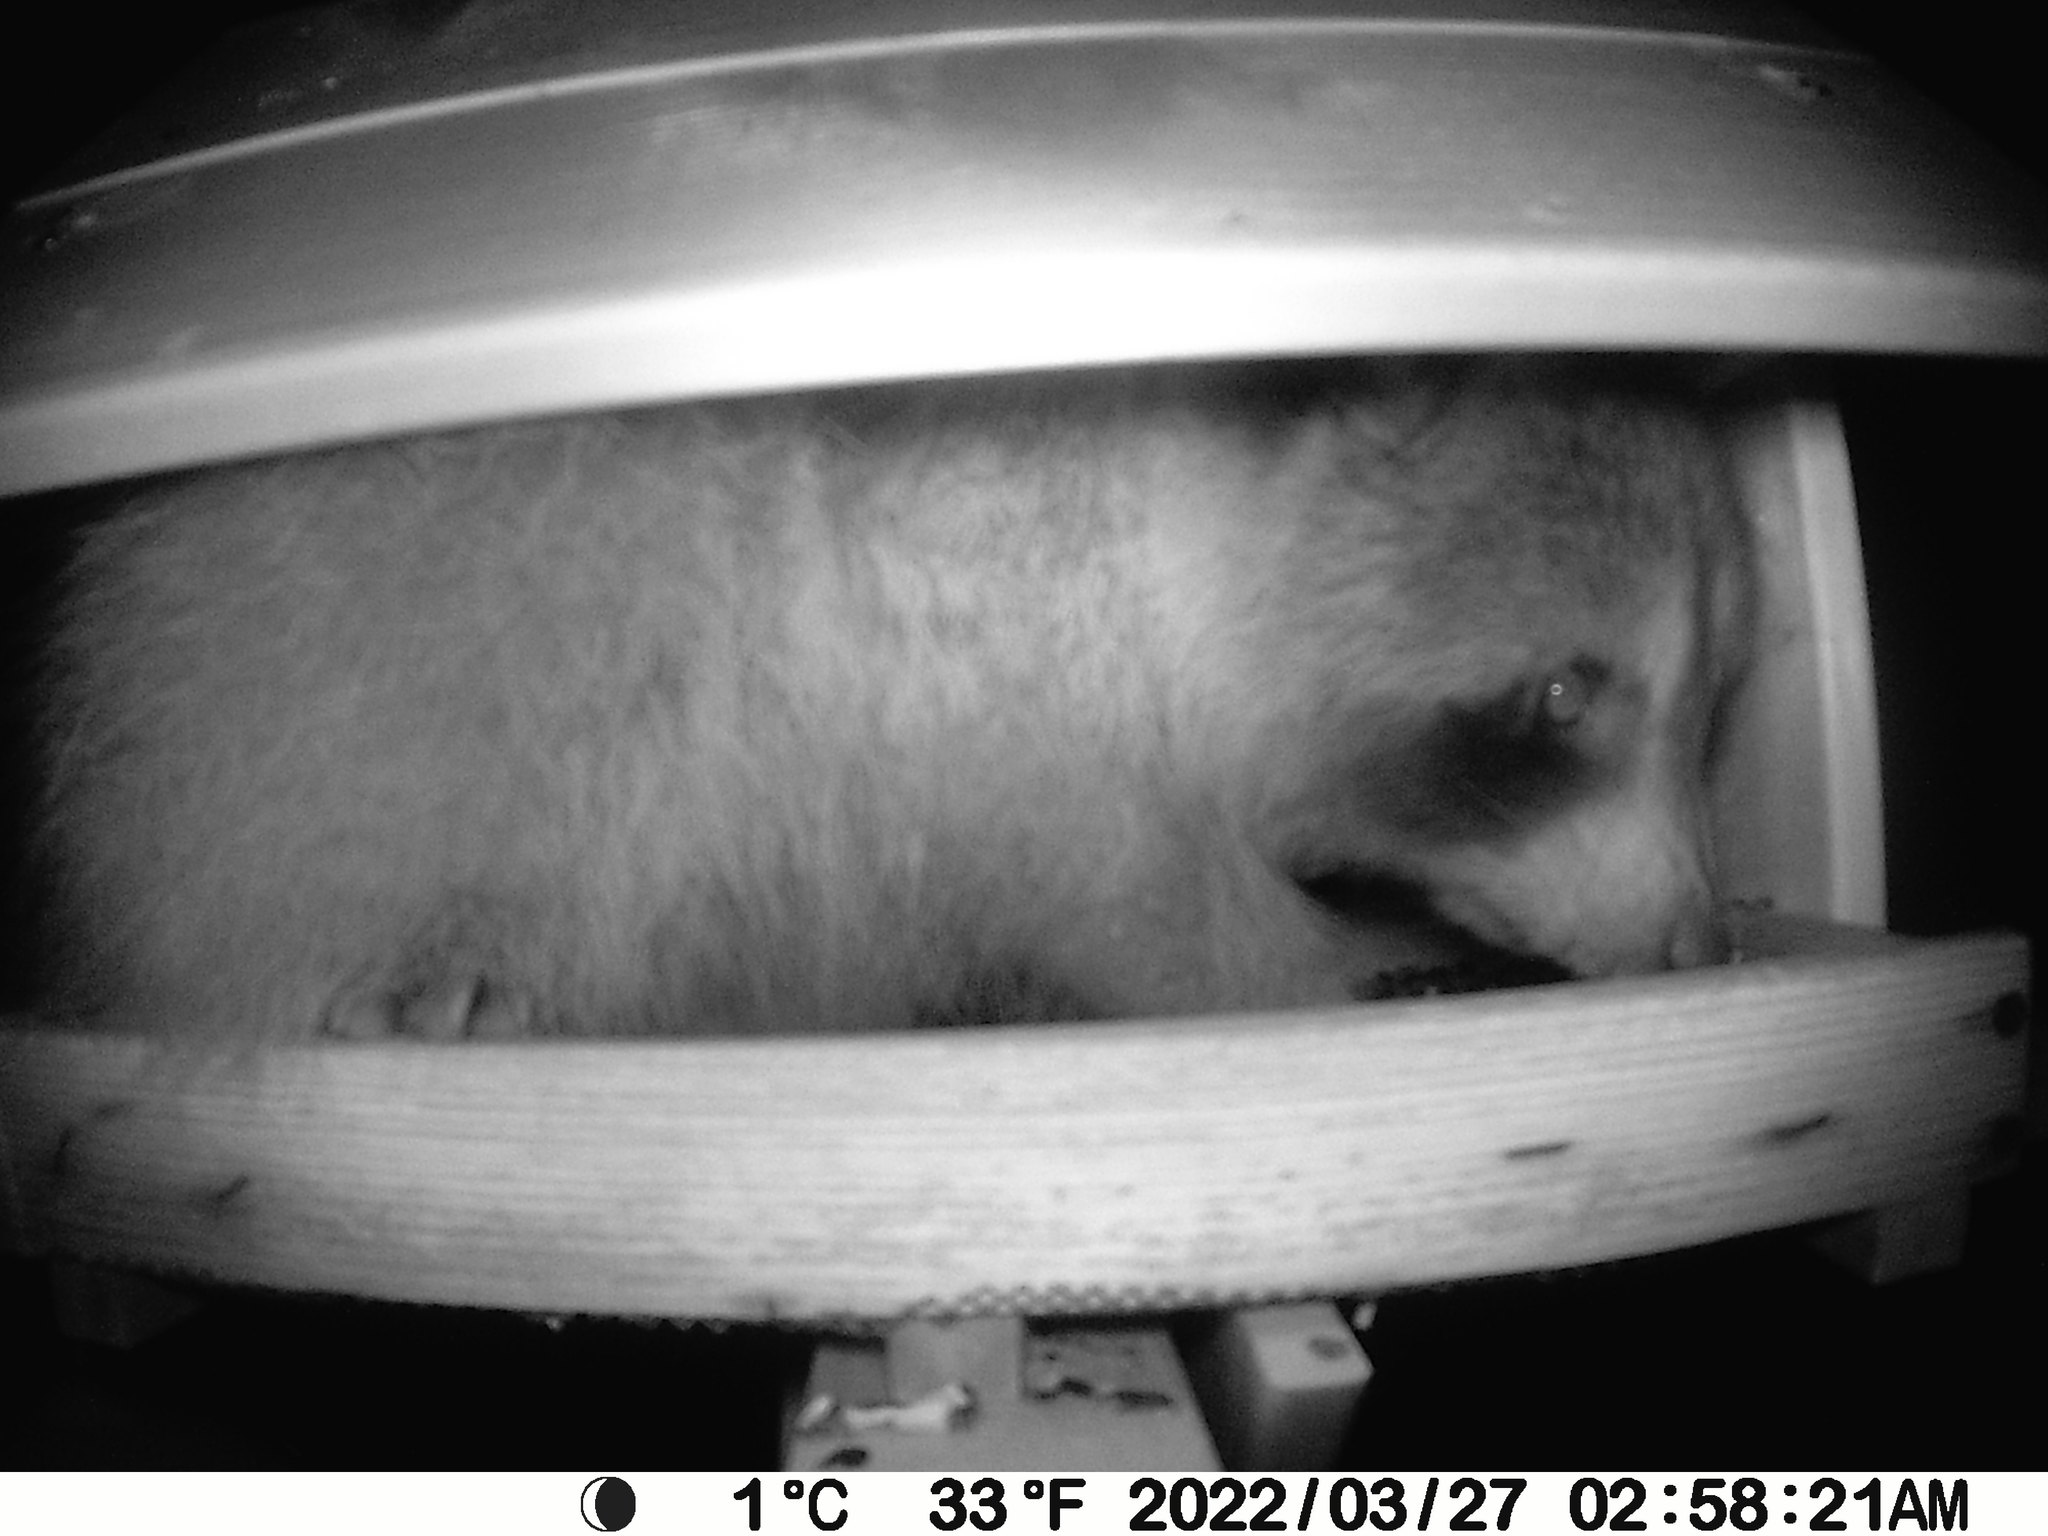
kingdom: Animalia
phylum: Chordata
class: Mammalia
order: Carnivora
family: Procyonidae
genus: Procyon
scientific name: Procyon lotor
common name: Raccoon
